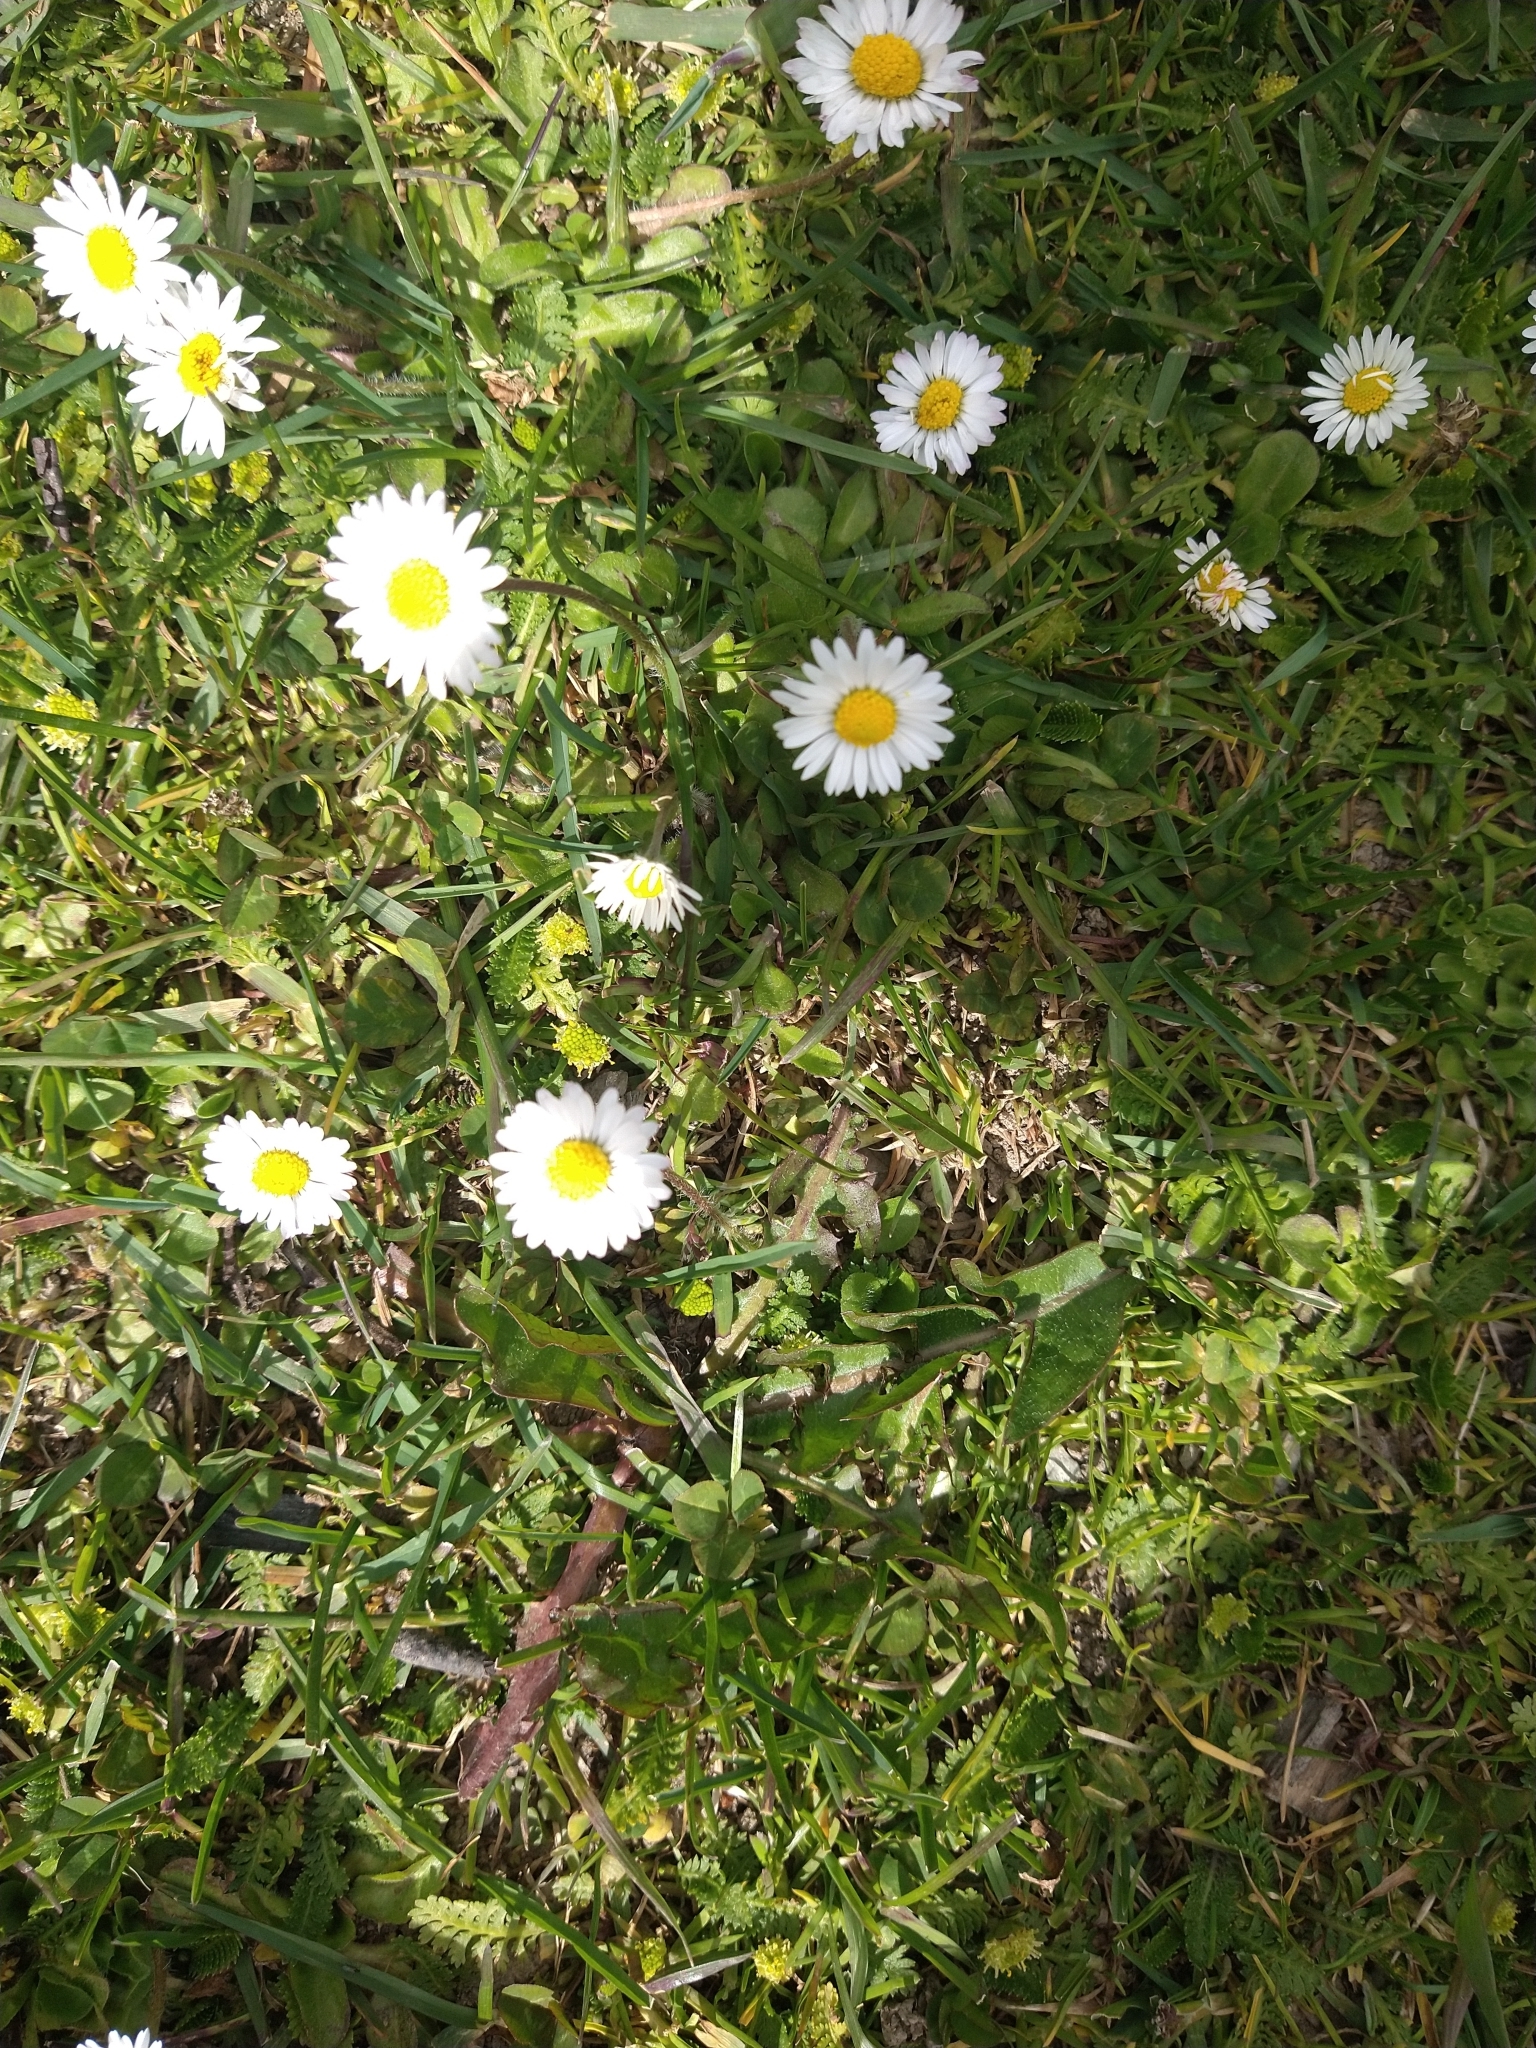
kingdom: Plantae
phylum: Tracheophyta
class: Magnoliopsida
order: Asterales
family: Asteraceae
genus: Bellis
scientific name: Bellis perennis
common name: Lawndaisy
